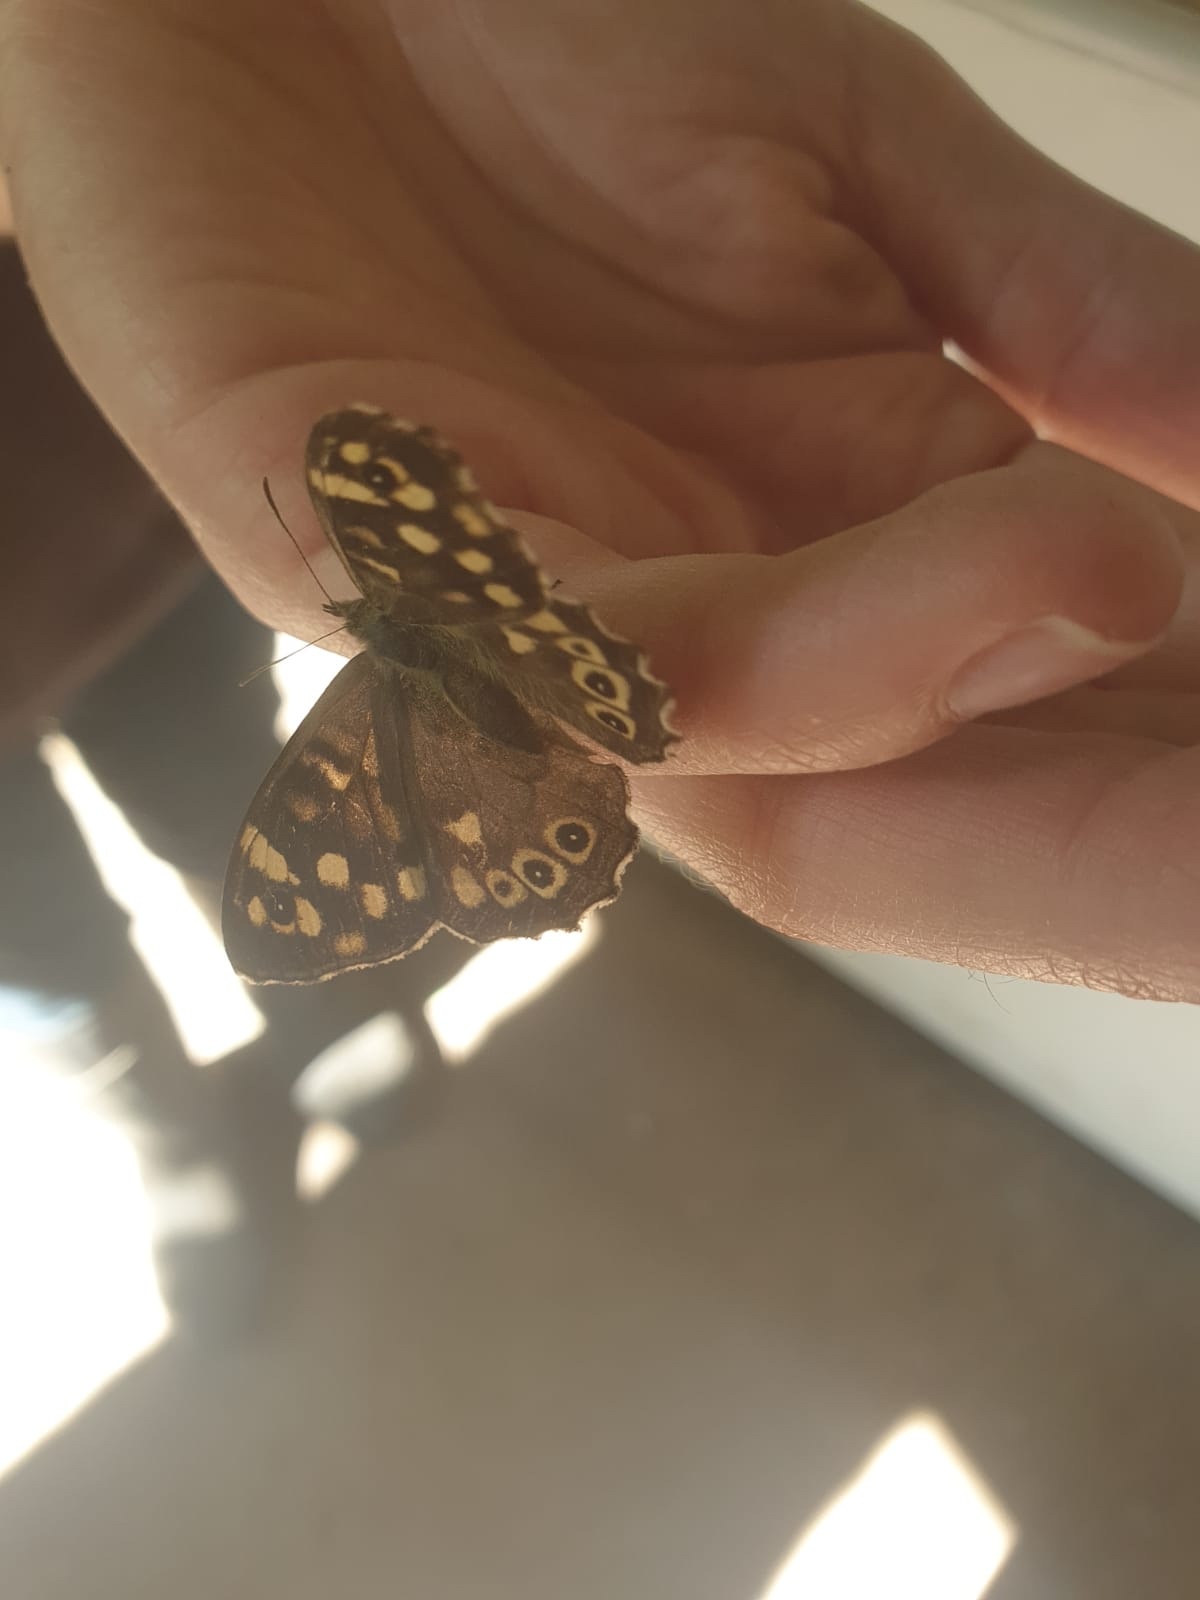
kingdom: Animalia
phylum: Arthropoda
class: Insecta
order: Lepidoptera
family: Nymphalidae
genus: Pararge
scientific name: Pararge aegeria
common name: Speckled wood
